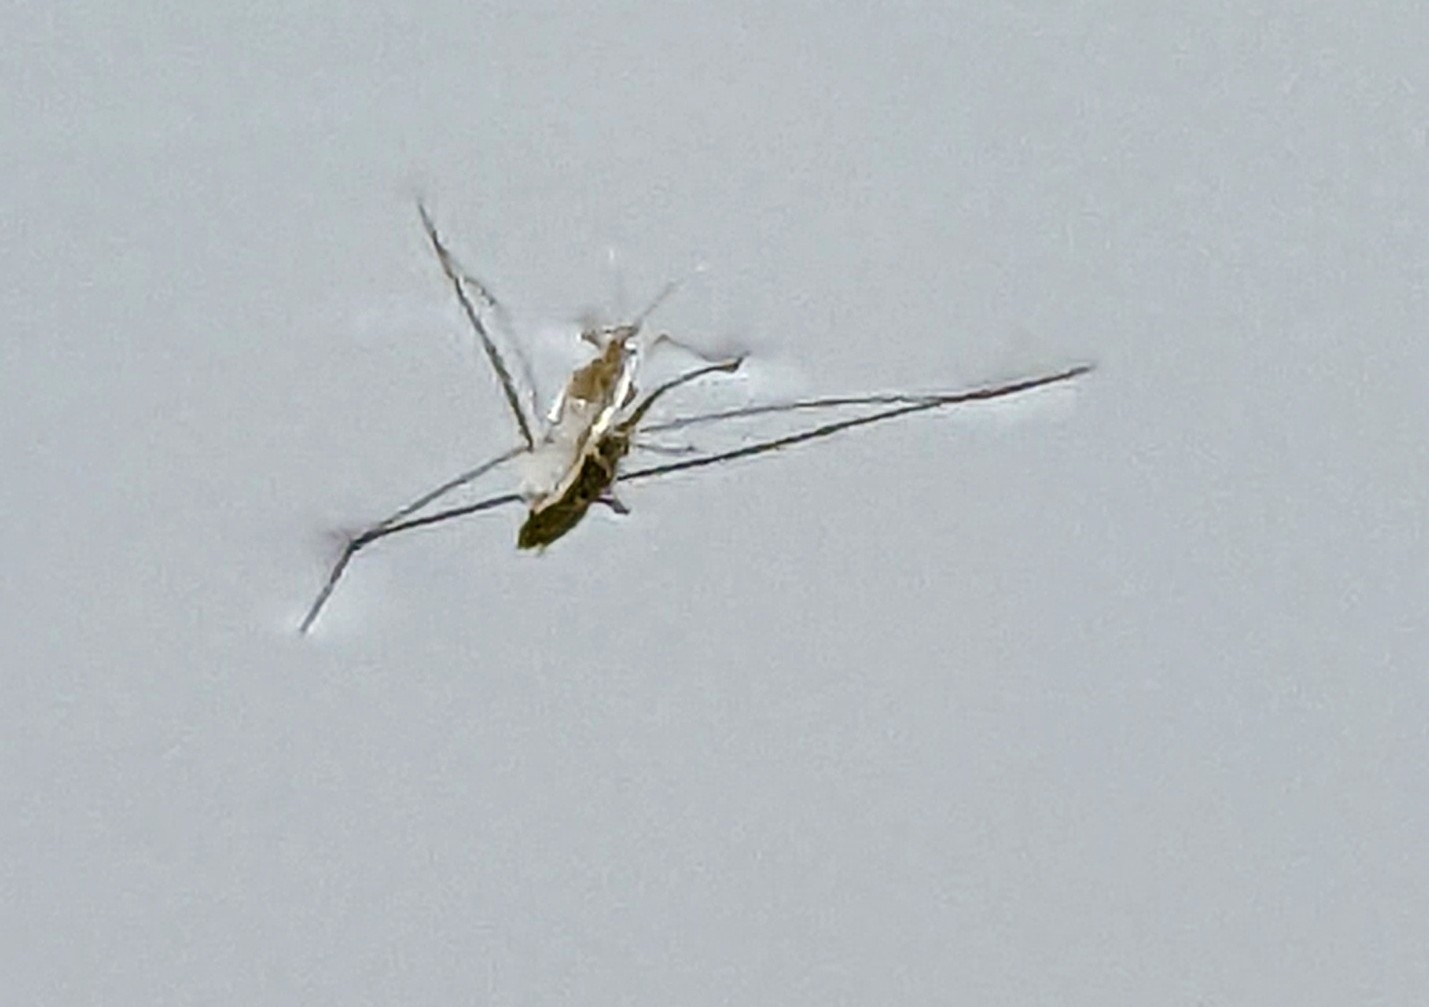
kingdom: Animalia
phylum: Arthropoda
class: Insecta
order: Hemiptera
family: Gerridae
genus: Aquarius
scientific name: Aquarius paludum
